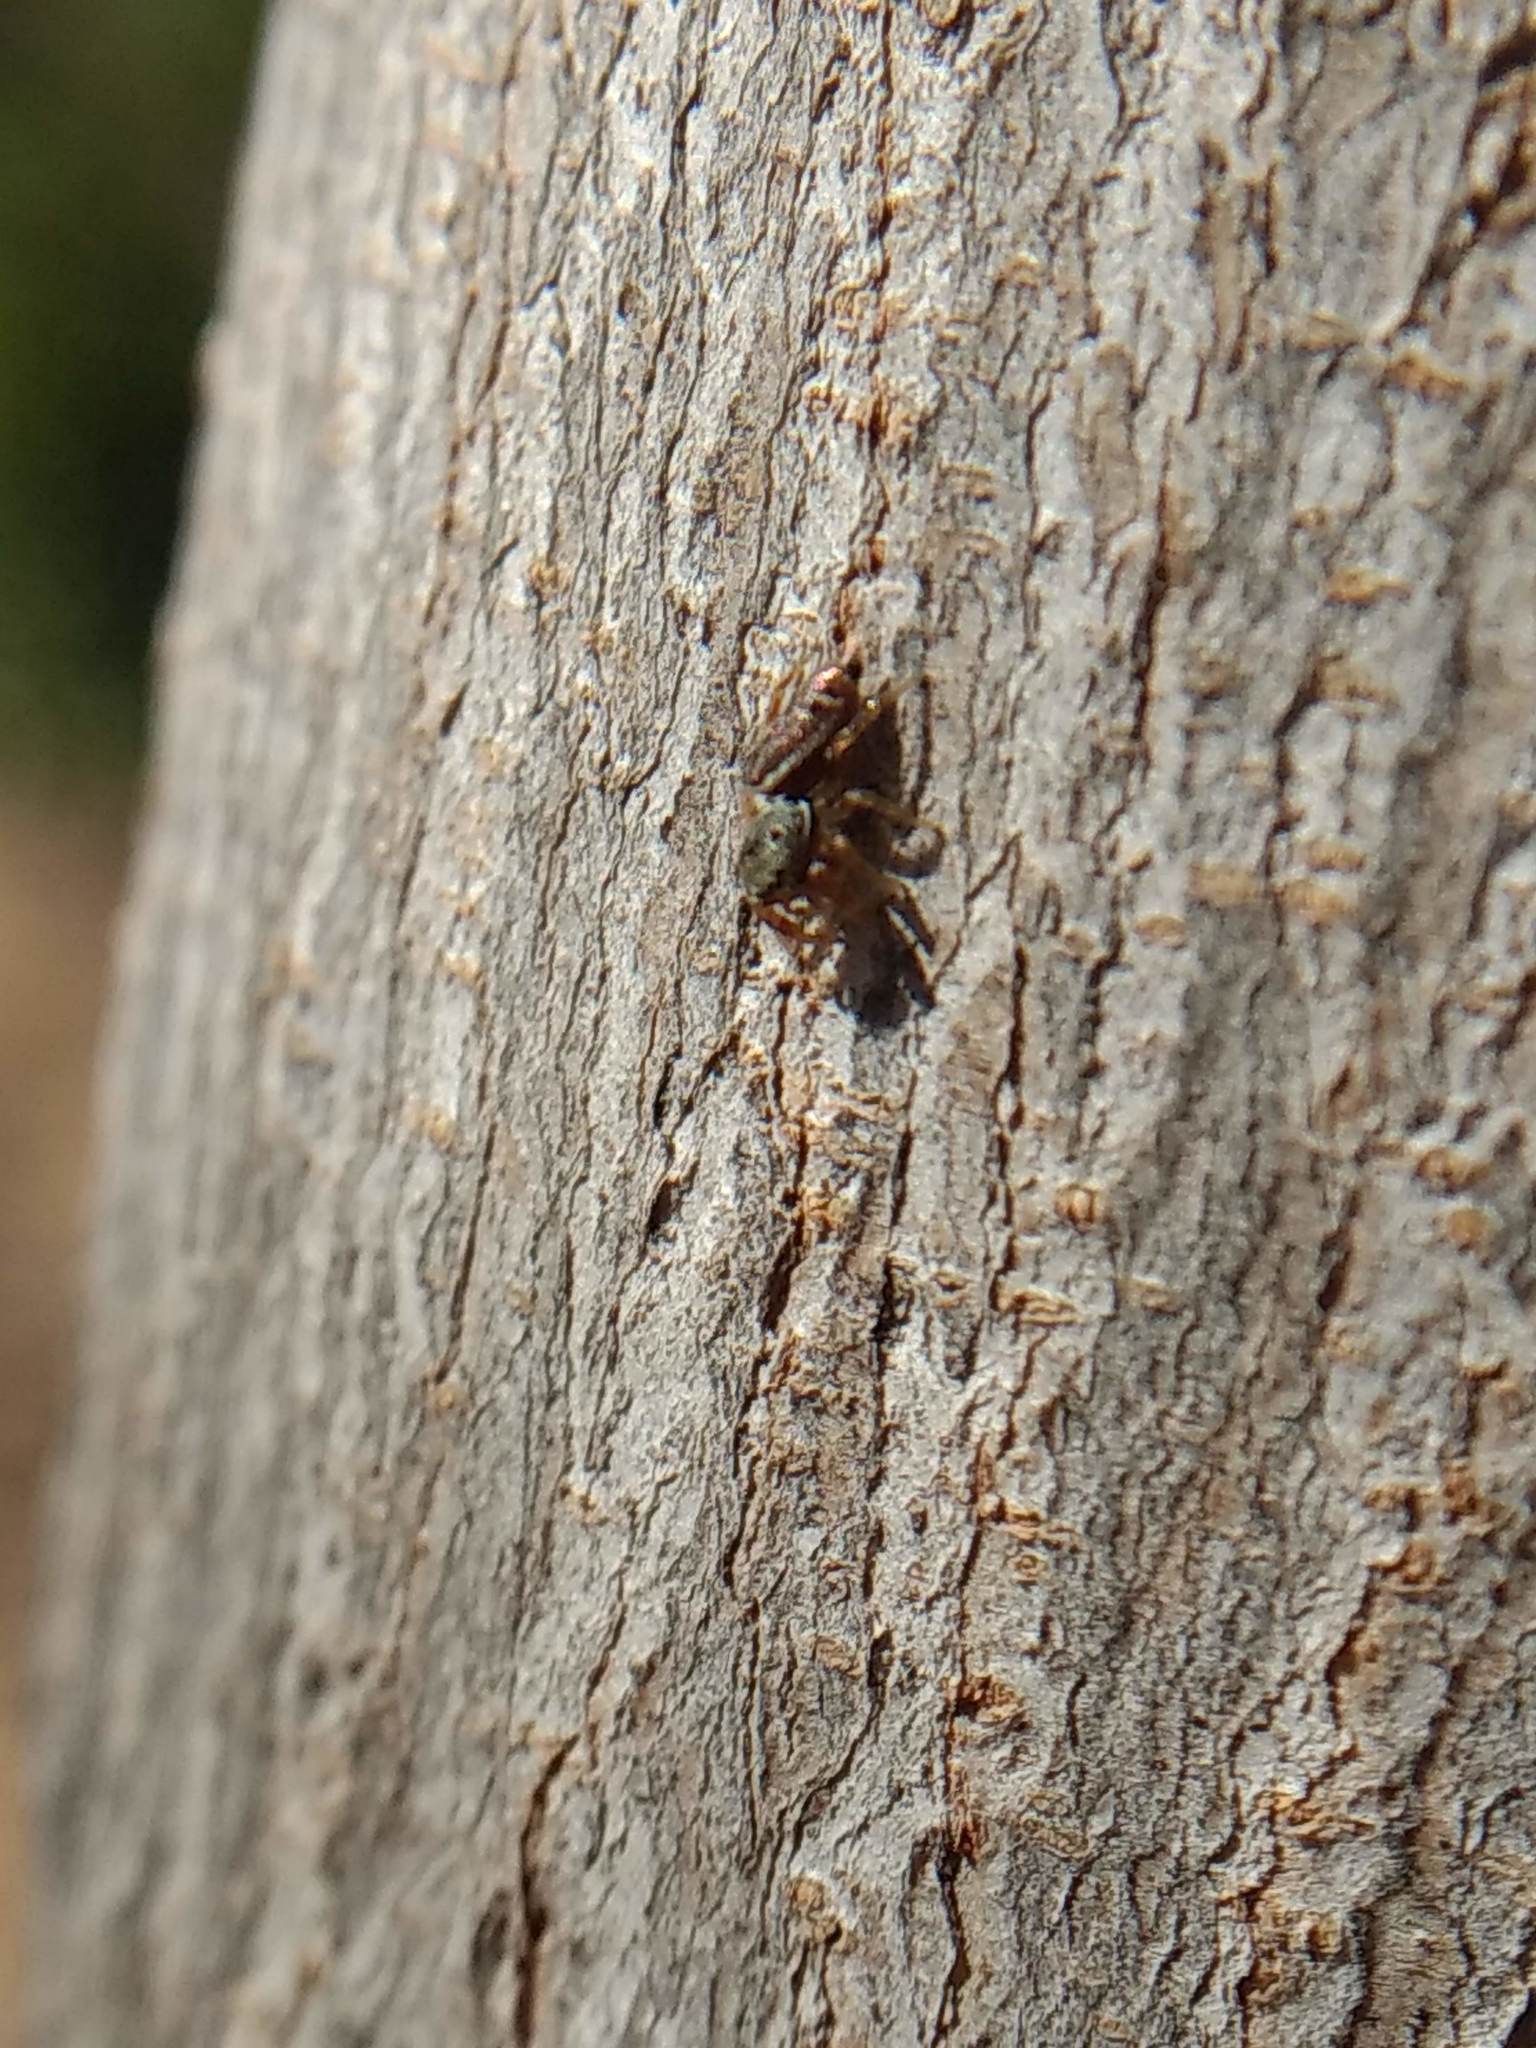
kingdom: Animalia
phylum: Arthropoda
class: Arachnida
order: Araneae
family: Salticidae
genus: Sassacus
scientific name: Sassacus vitis
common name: Jumping spiders
